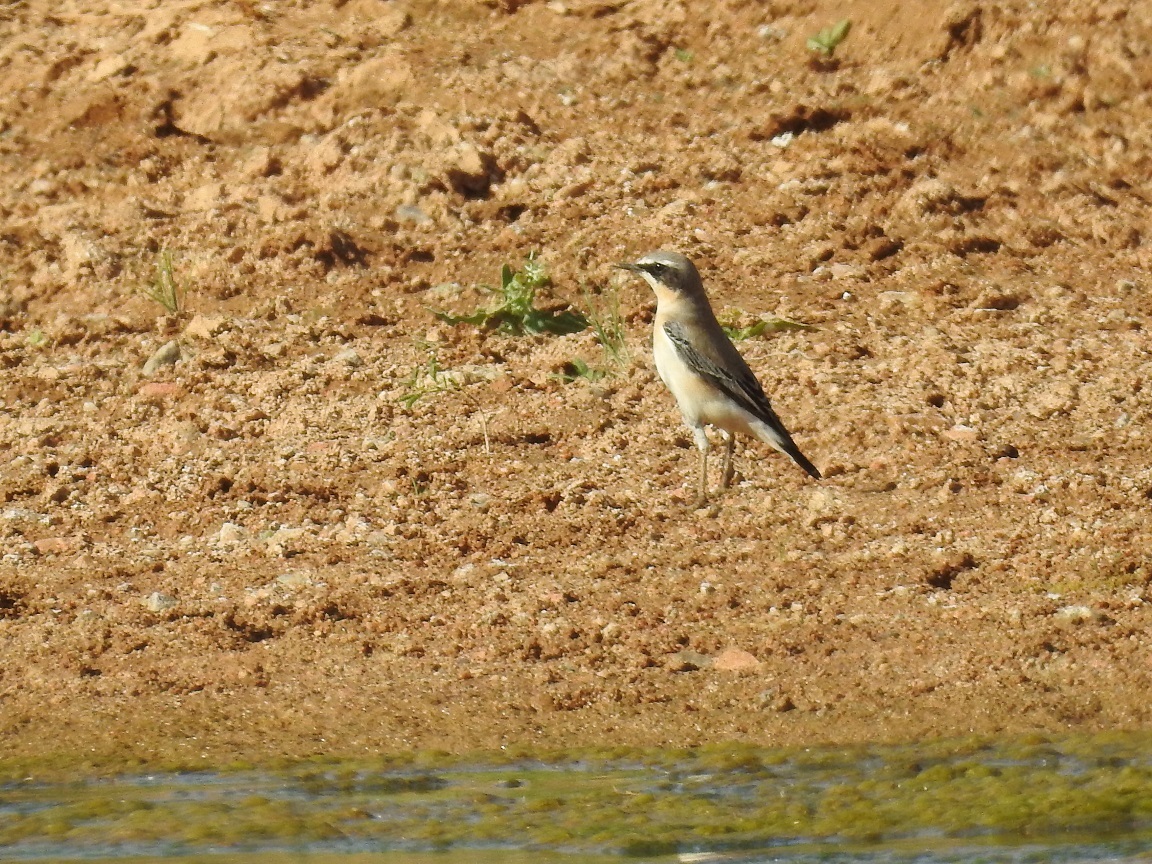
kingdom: Animalia
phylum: Chordata
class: Aves
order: Passeriformes
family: Muscicapidae
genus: Oenanthe
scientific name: Oenanthe oenanthe
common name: Northern wheatear
